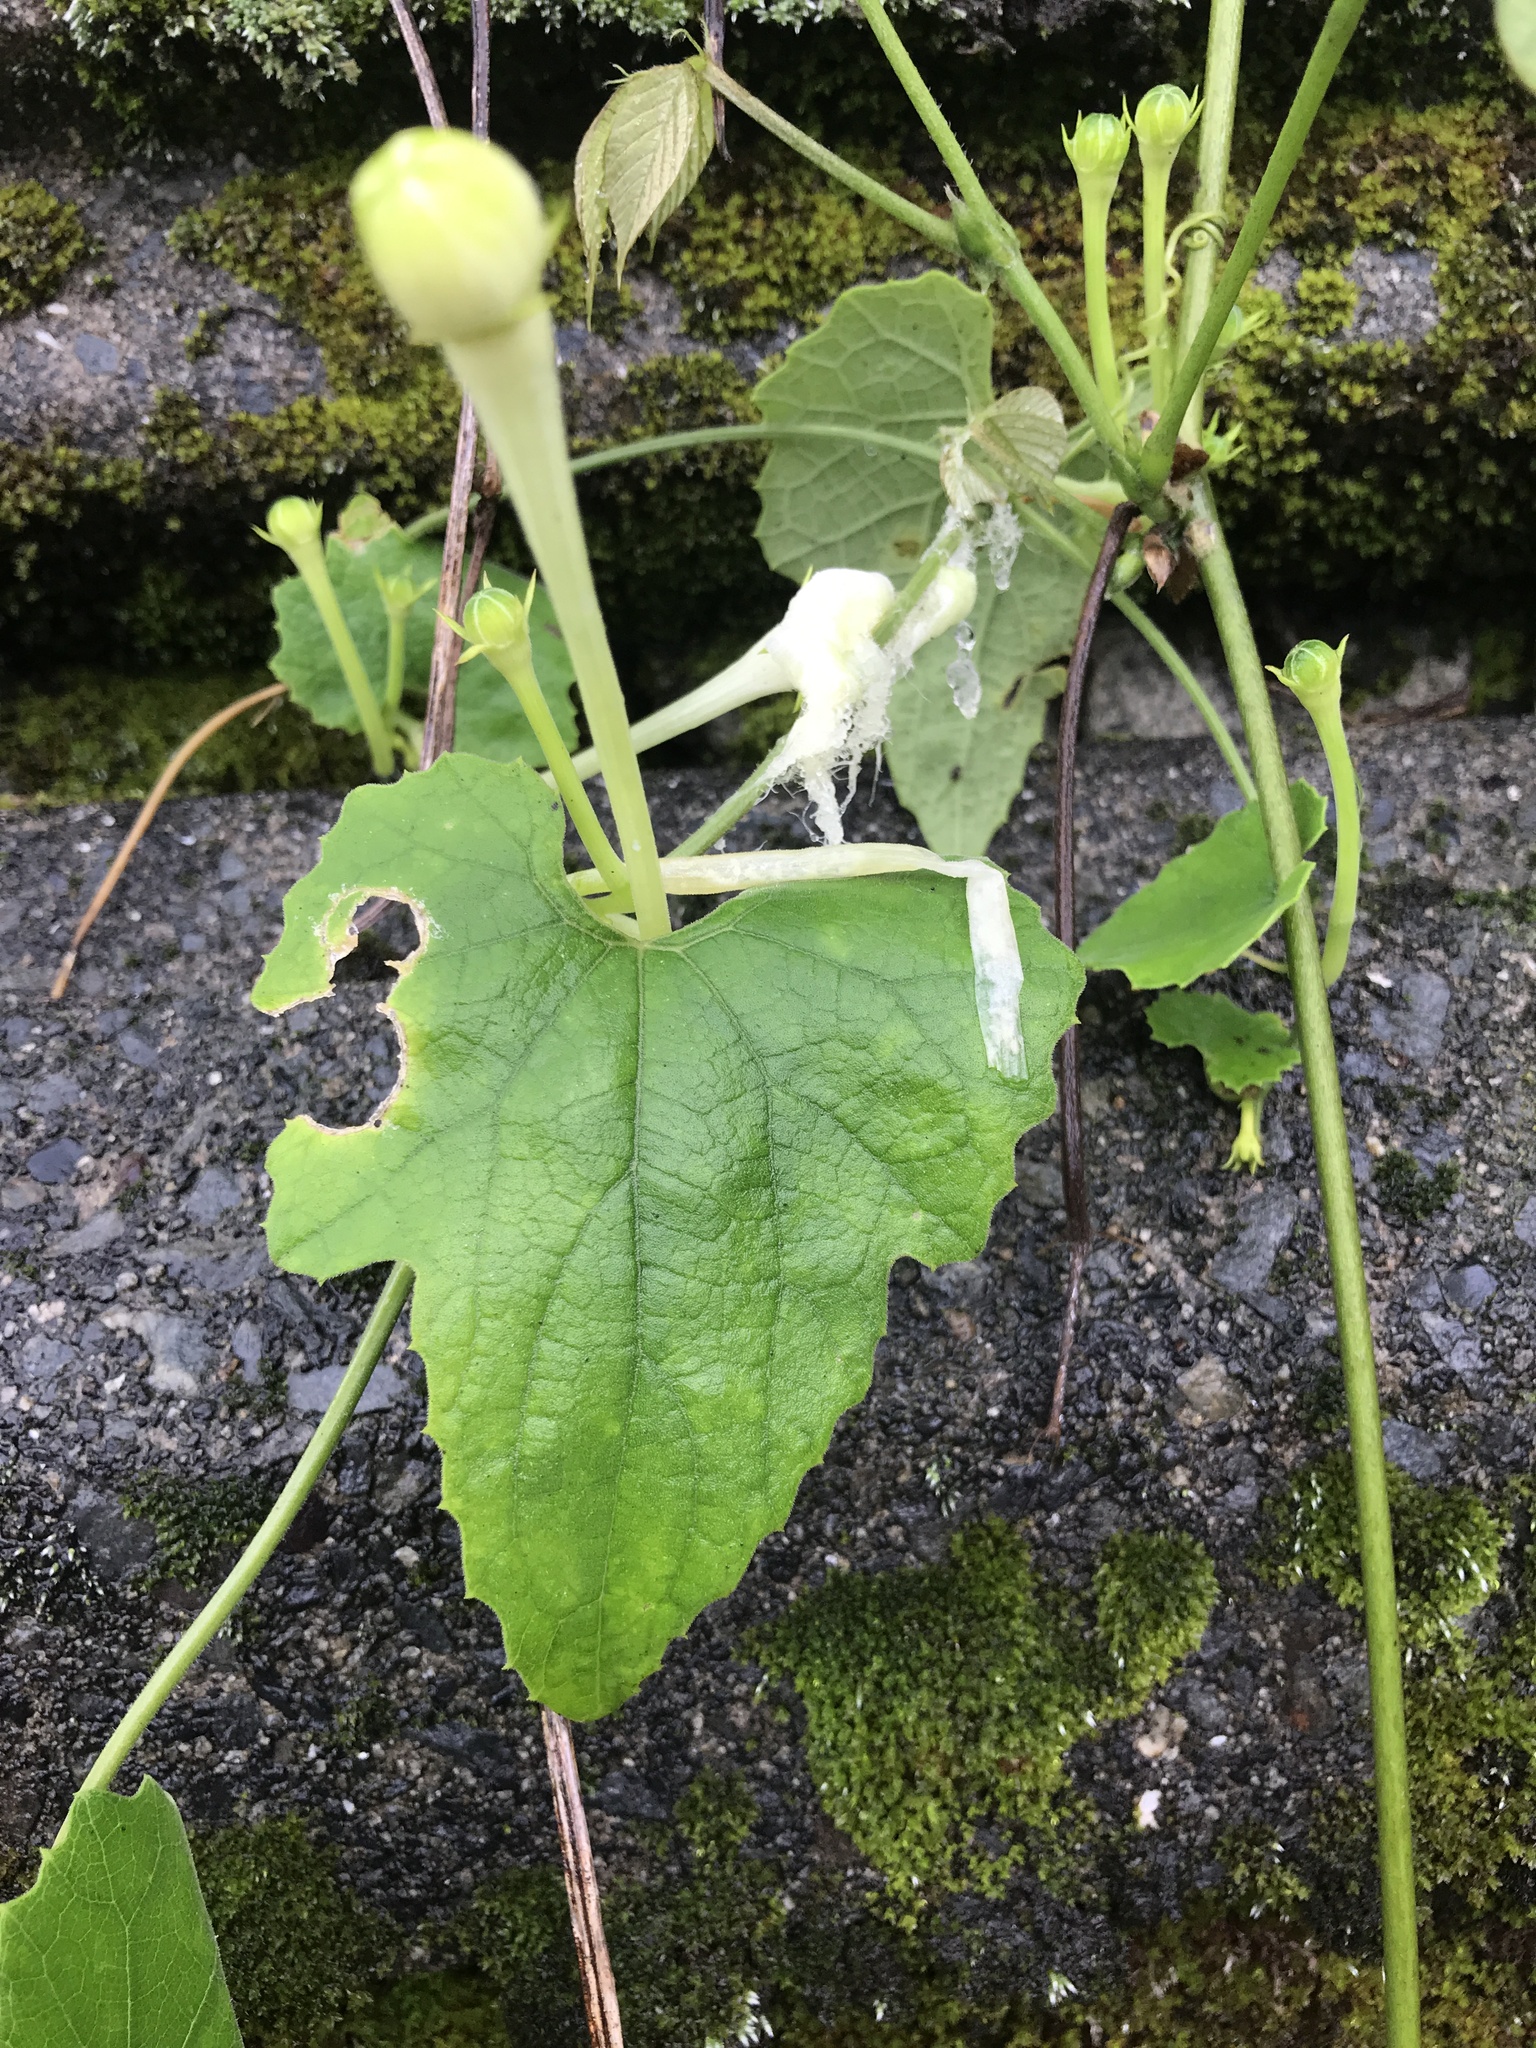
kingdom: Plantae
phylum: Tracheophyta
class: Magnoliopsida
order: Cucurbitales
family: Cucurbitaceae
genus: Trichosanthes
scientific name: Trichosanthes cucumeroides
